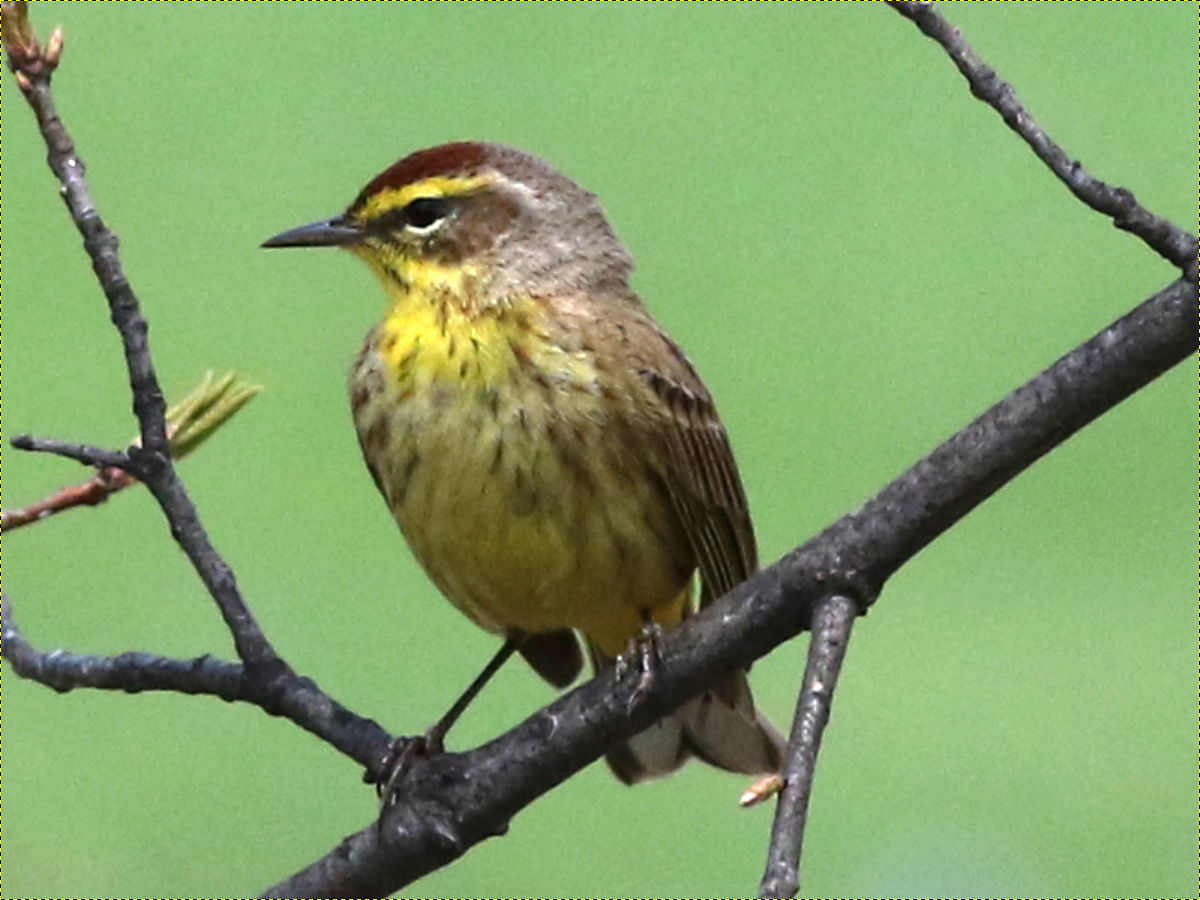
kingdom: Animalia
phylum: Chordata
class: Aves
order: Passeriformes
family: Parulidae
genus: Setophaga
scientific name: Setophaga palmarum
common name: Palm warbler
